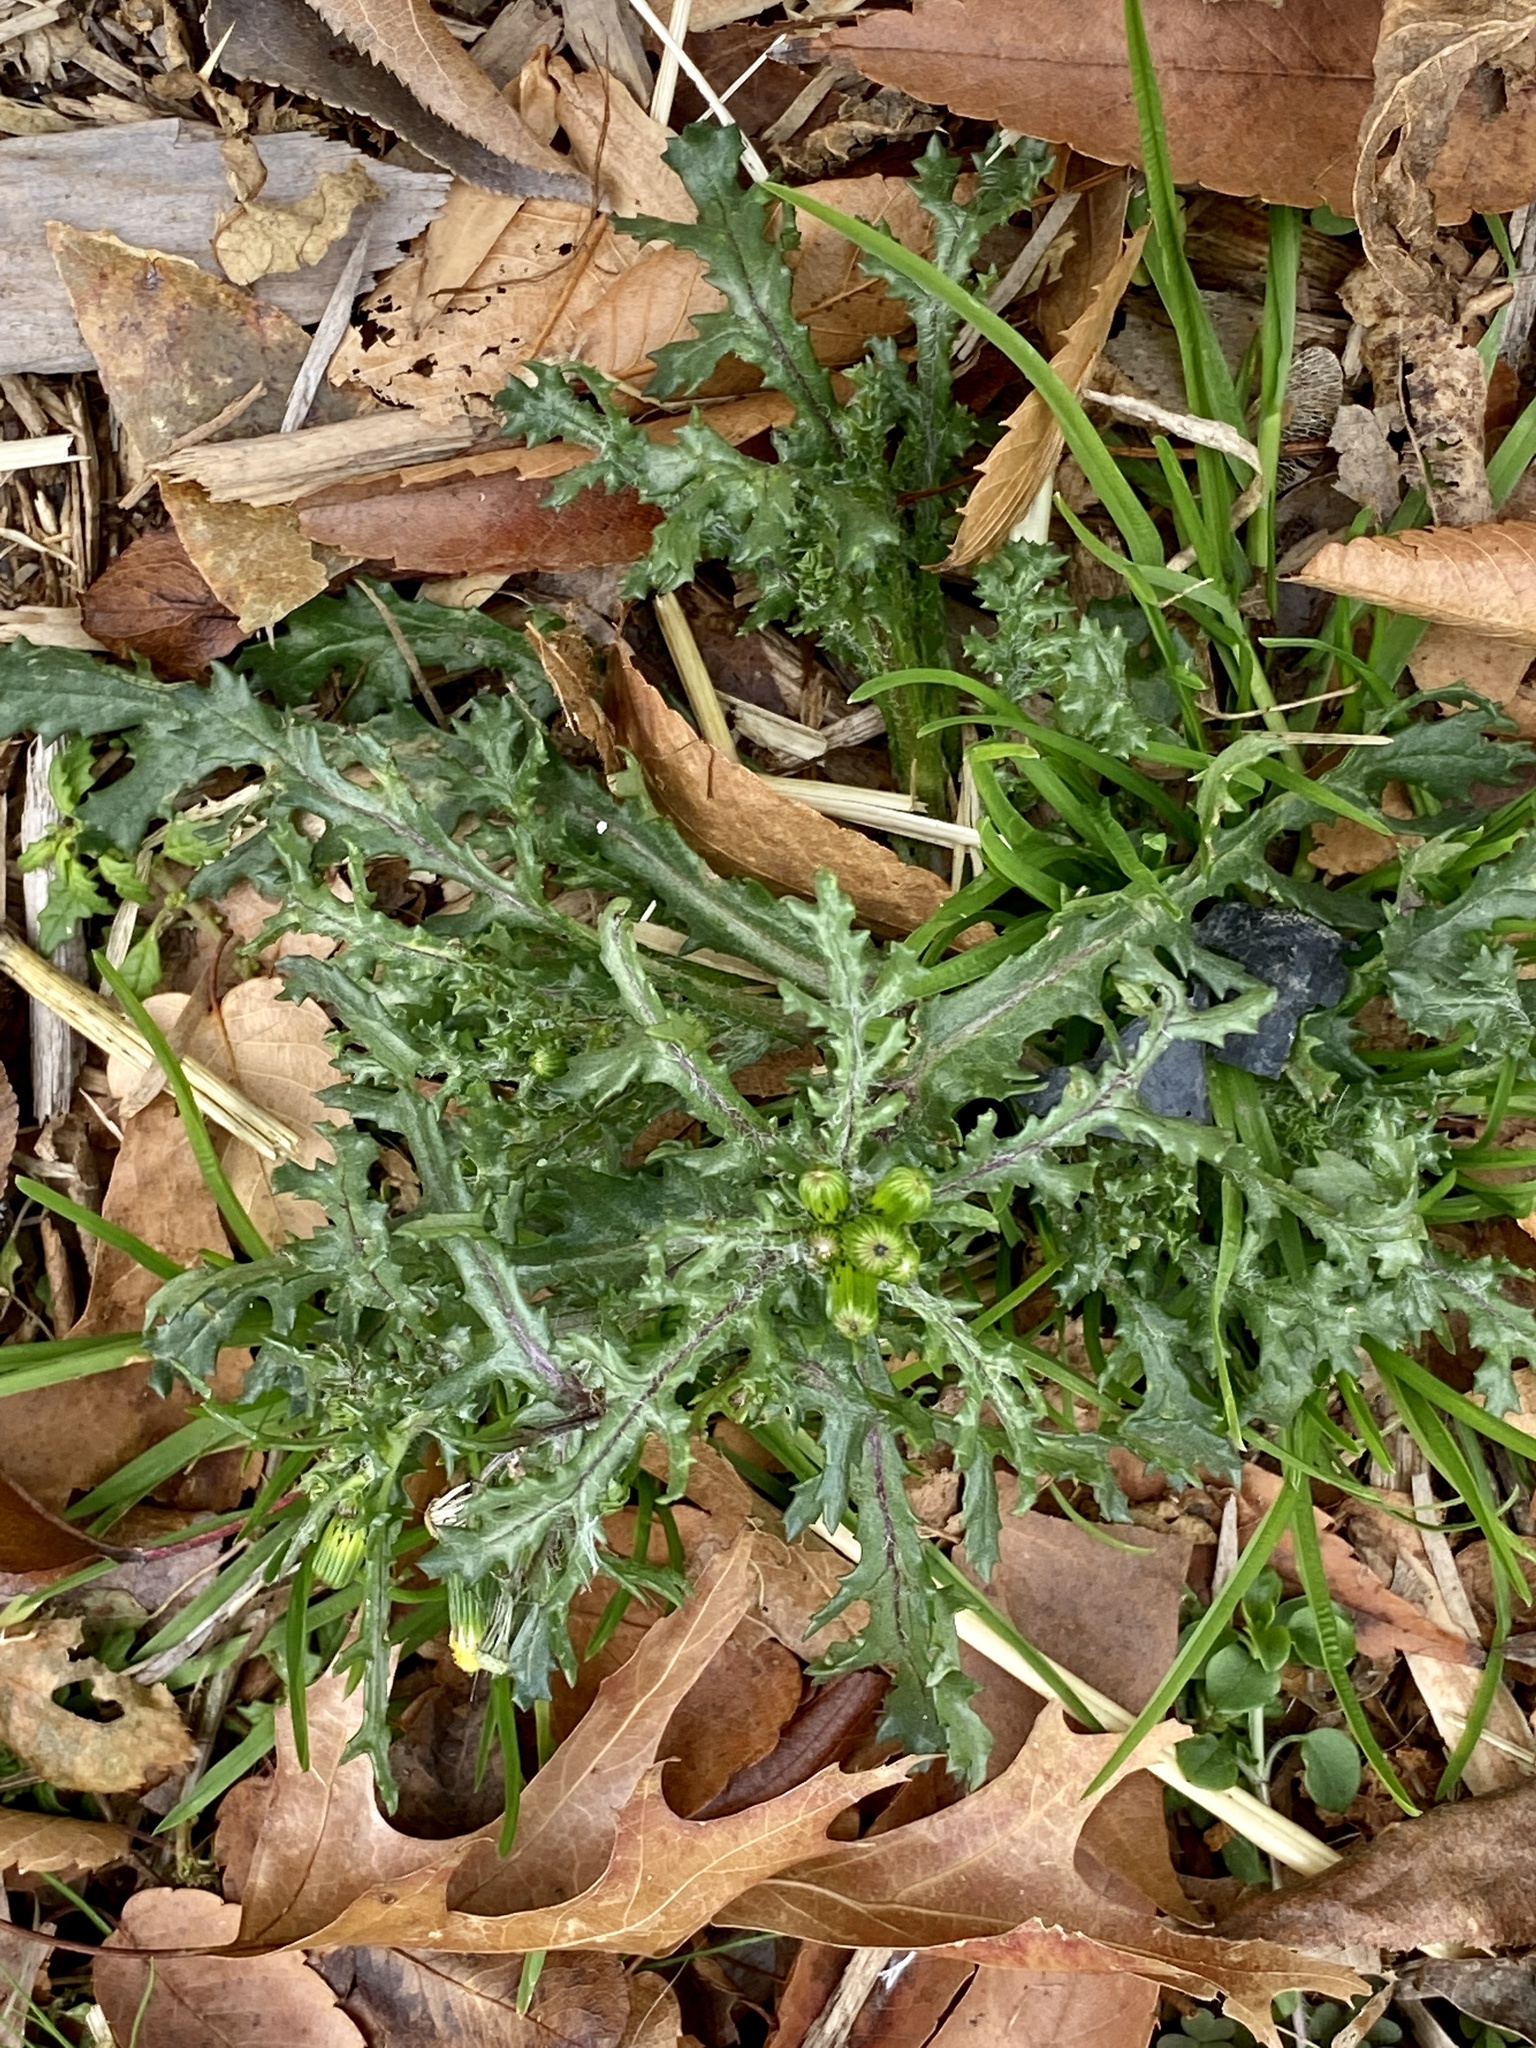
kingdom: Plantae
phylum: Tracheophyta
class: Magnoliopsida
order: Asterales
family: Asteraceae
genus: Senecio
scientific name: Senecio vulgaris
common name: Old-man-in-the-spring
